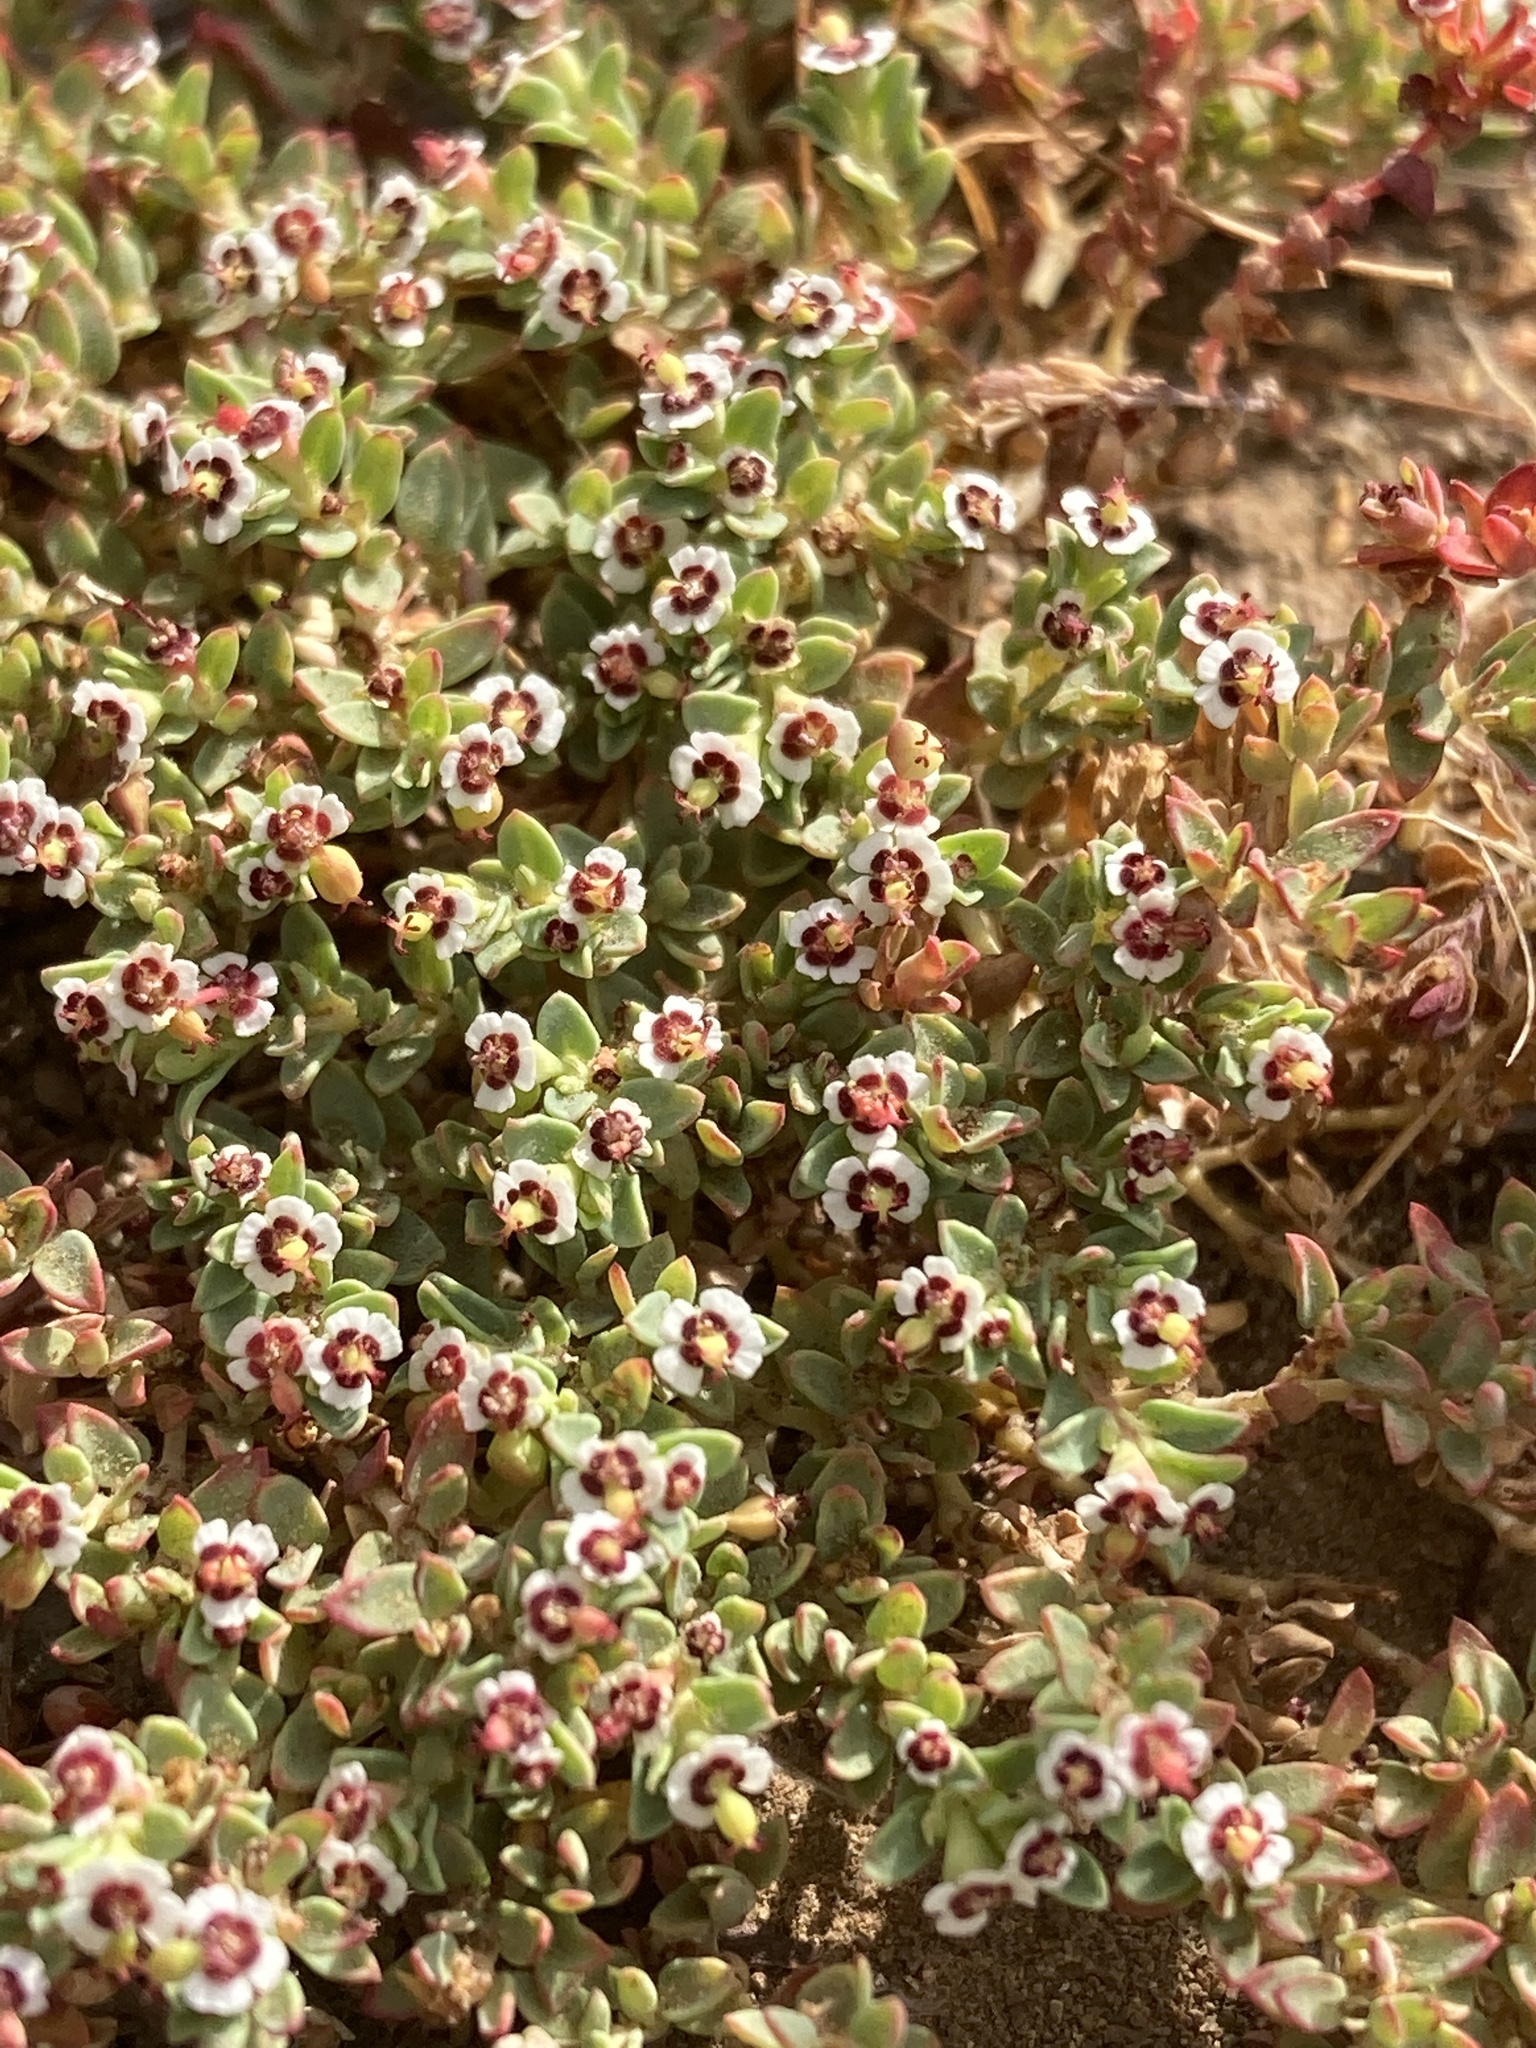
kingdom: Plantae
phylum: Tracheophyta
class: Magnoliopsida
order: Malpighiales
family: Euphorbiaceae
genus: Euphorbia
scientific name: Euphorbia polycarpa
